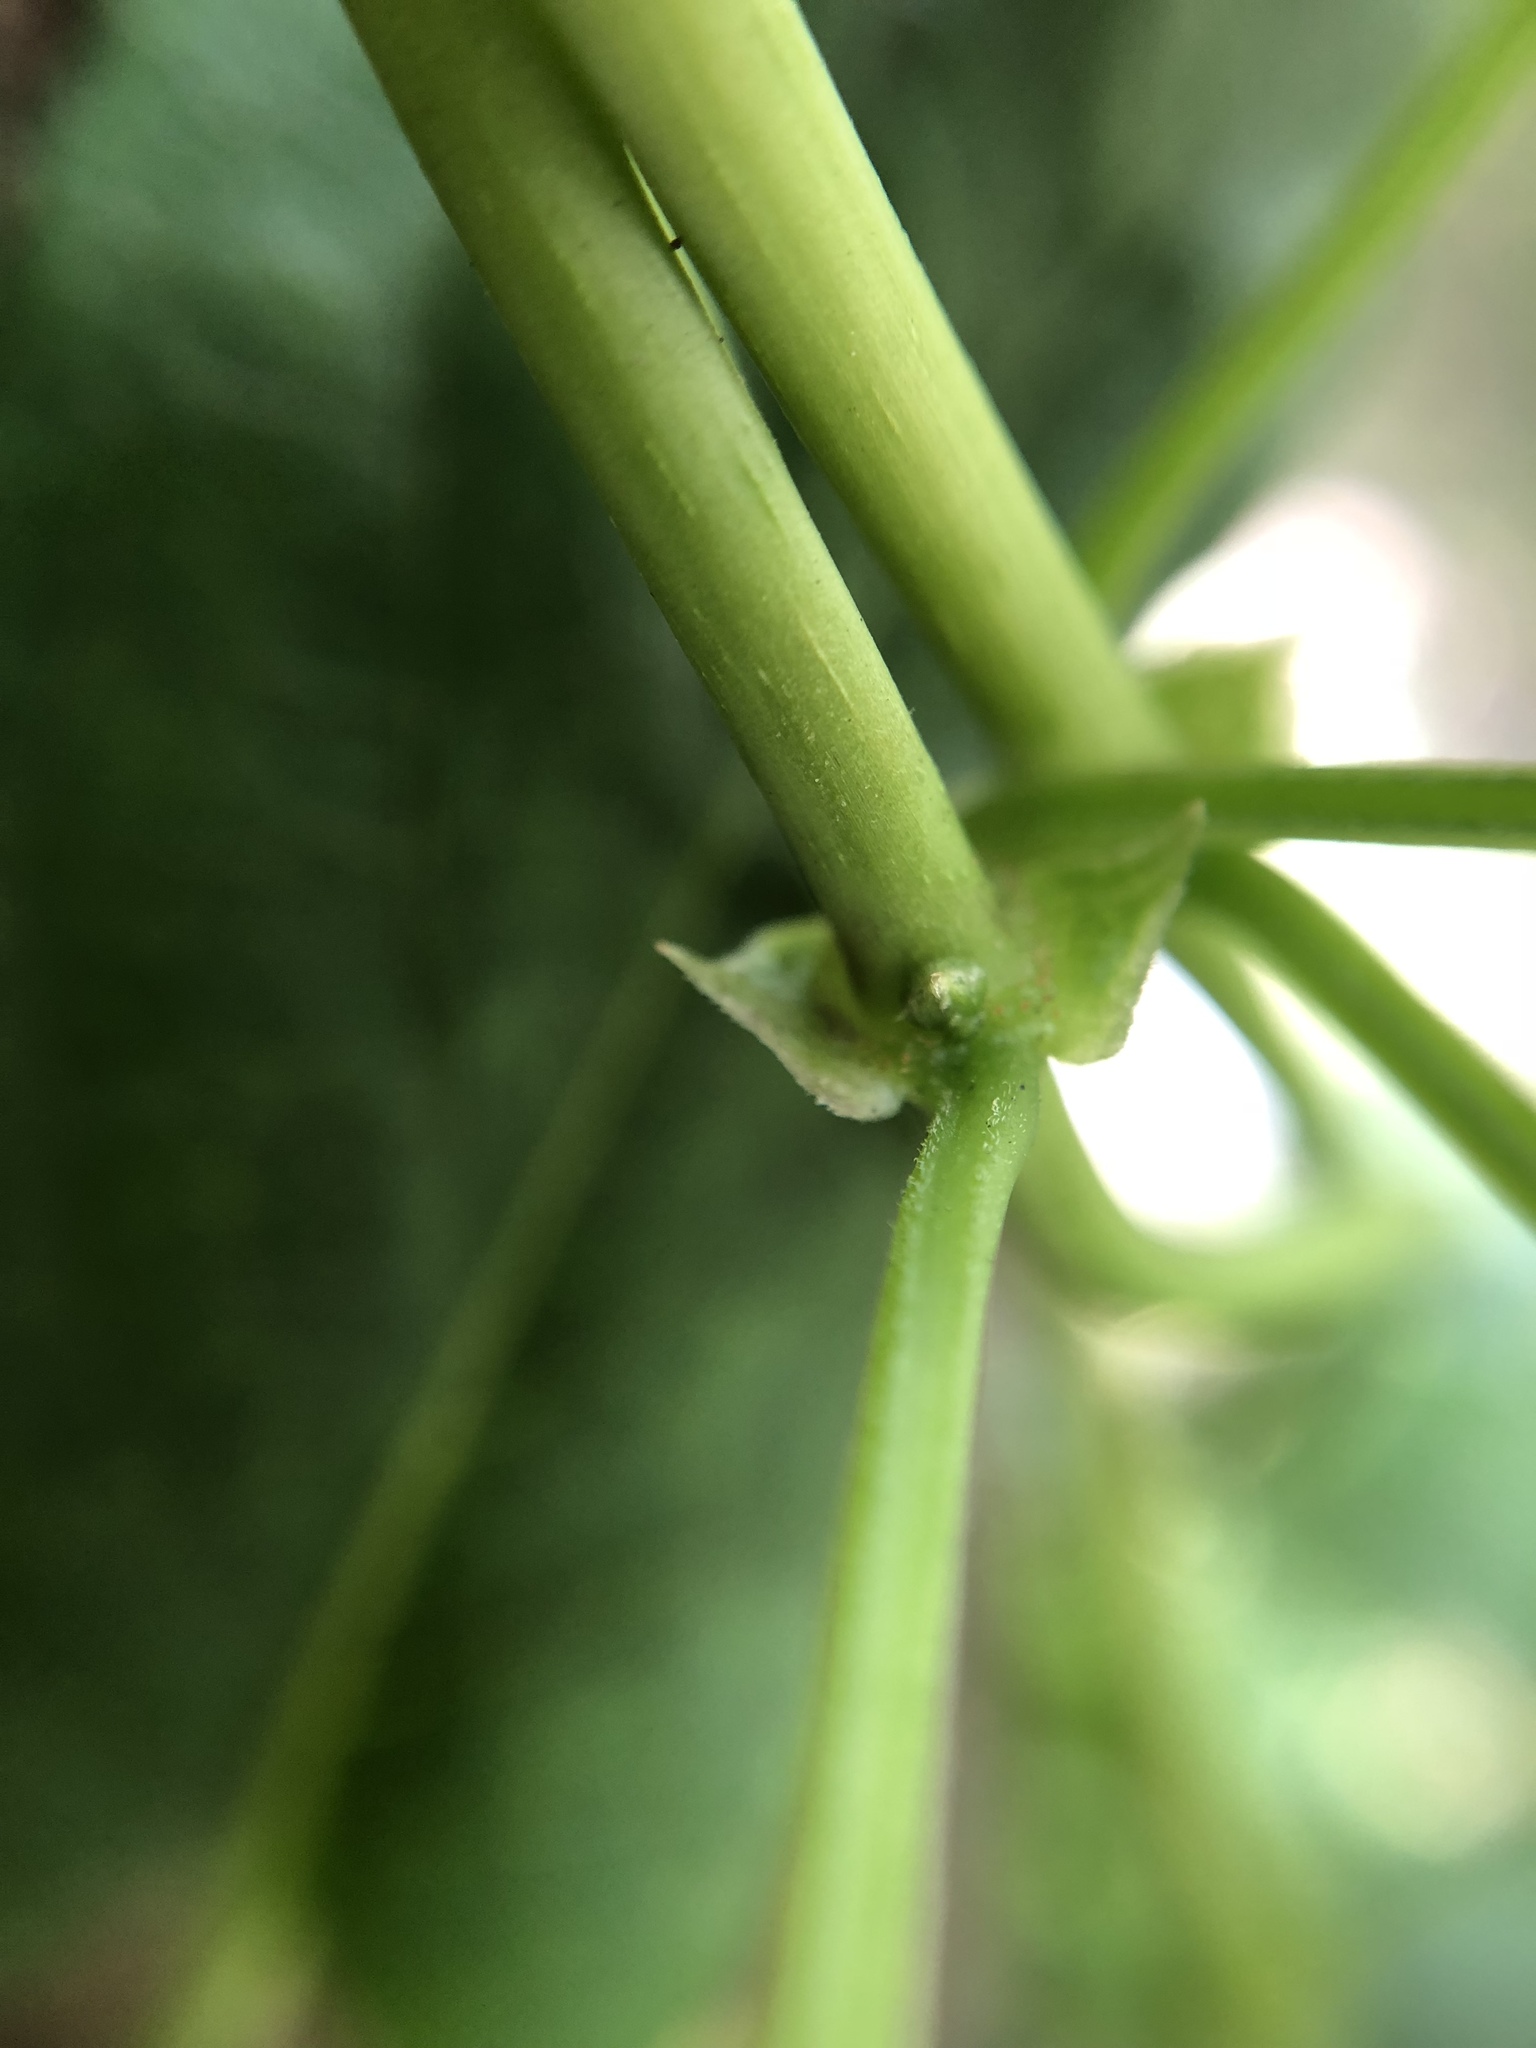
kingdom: Plantae
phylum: Tracheophyta
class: Magnoliopsida
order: Gentianales
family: Rubiaceae
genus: Paederia
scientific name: Paederia foetida
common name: Stinkvine
